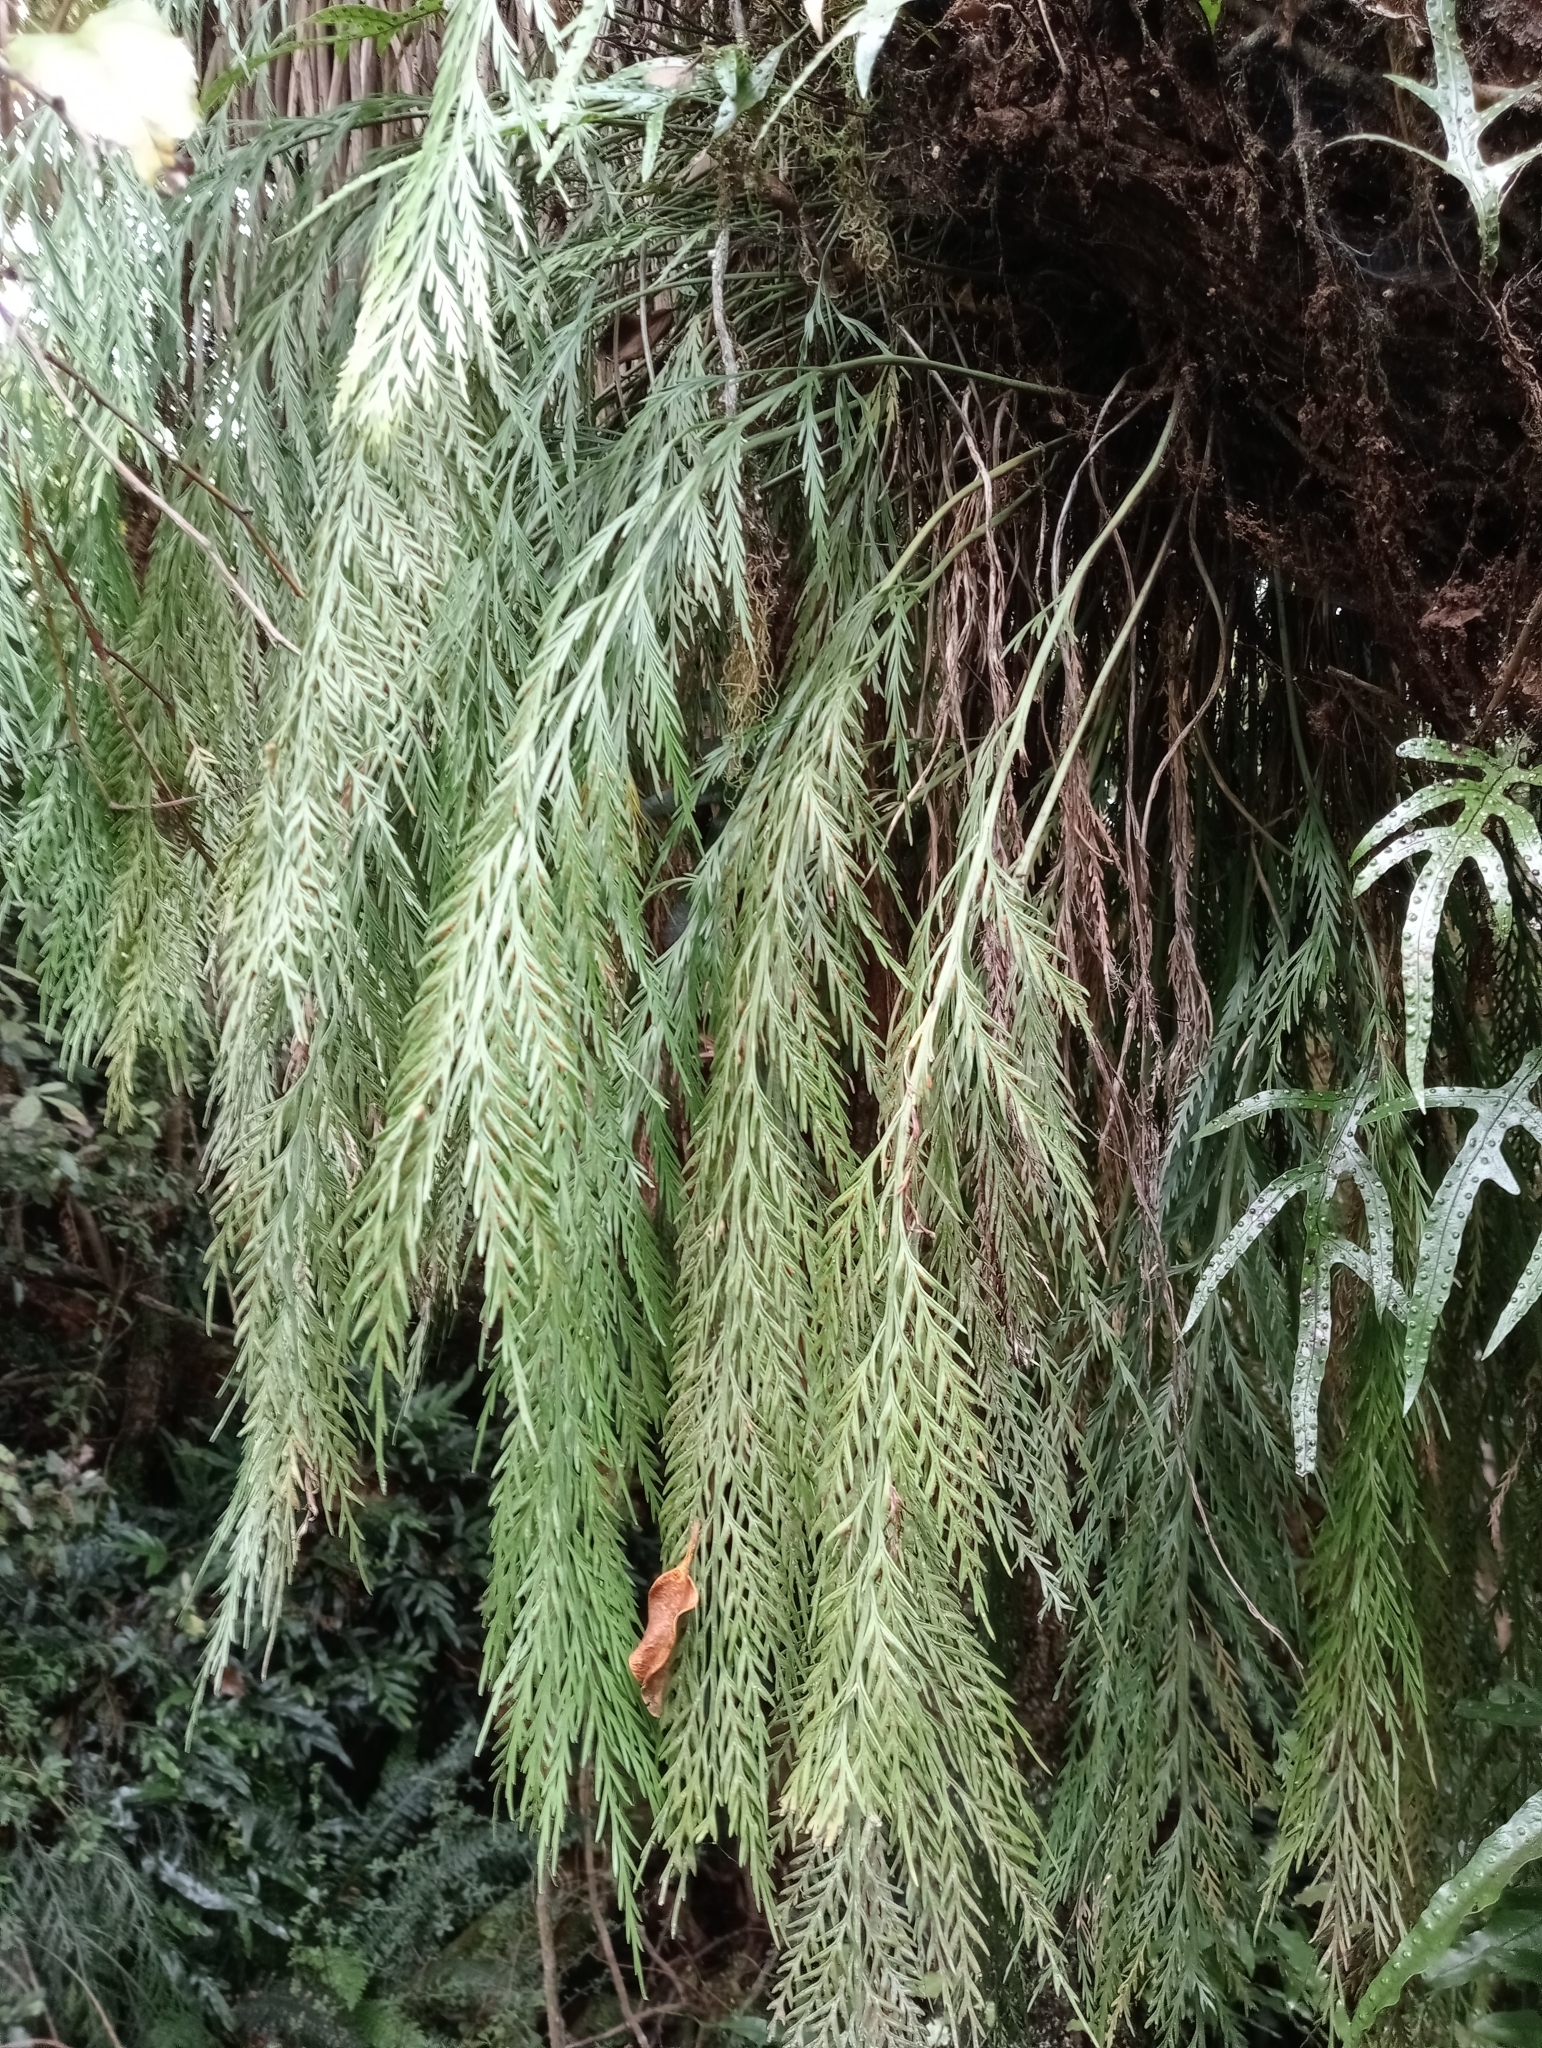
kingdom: Plantae
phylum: Tracheophyta
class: Polypodiopsida
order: Polypodiales
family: Aspleniaceae
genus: Asplenium
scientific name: Asplenium flaccidum
